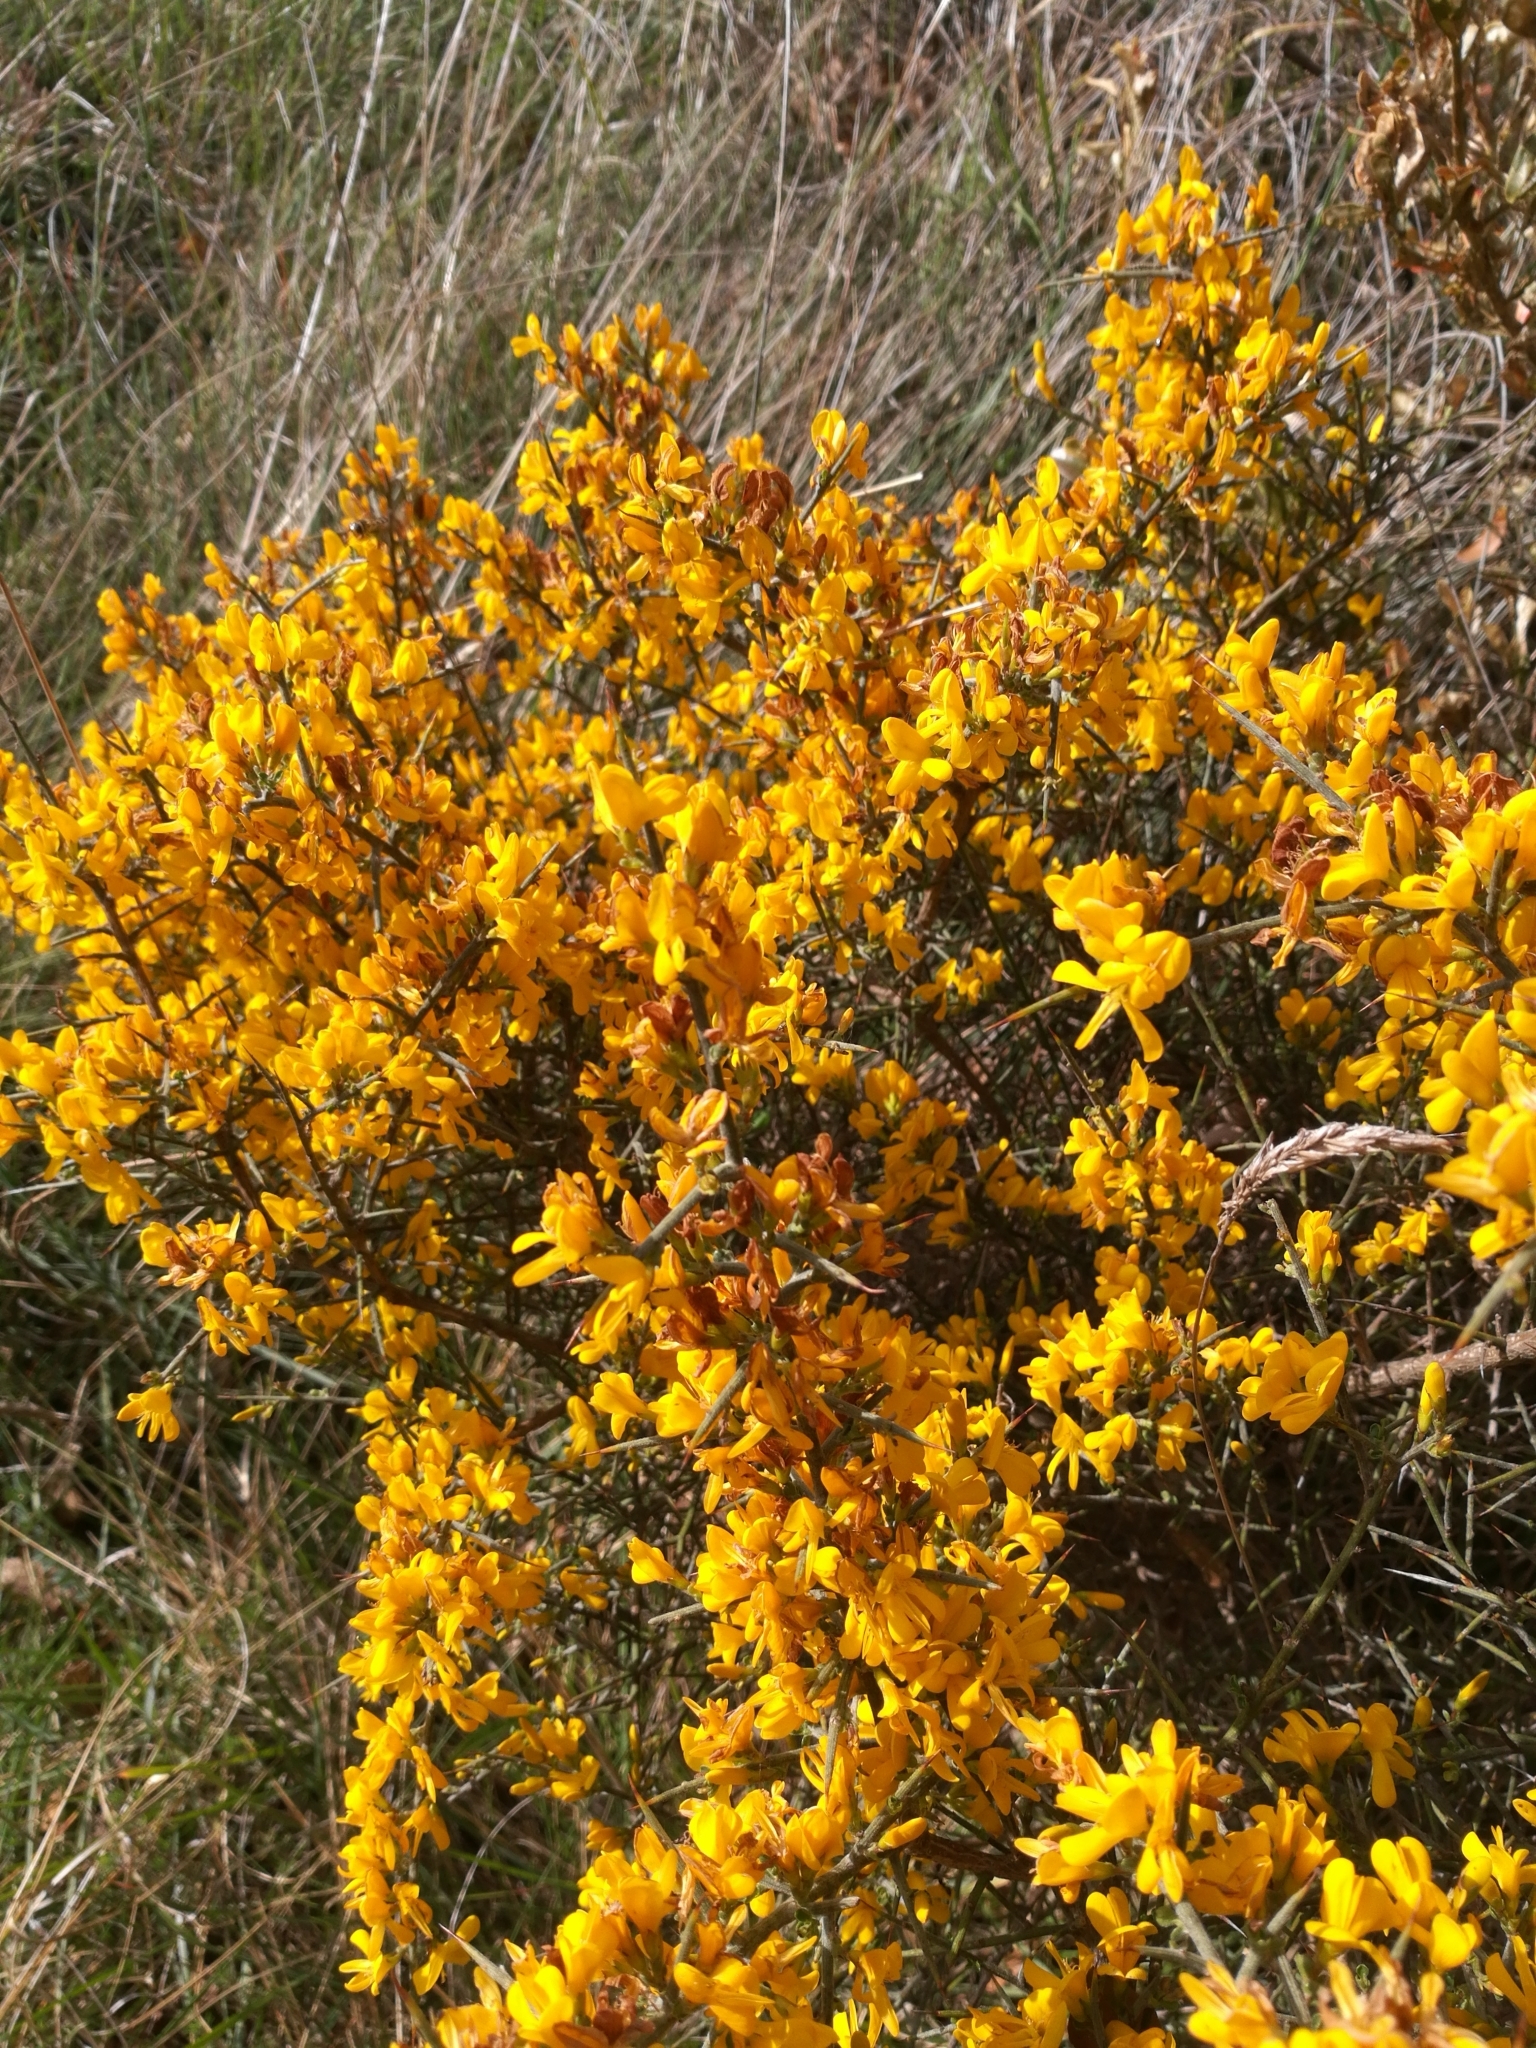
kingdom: Plantae
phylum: Tracheophyta
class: Magnoliopsida
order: Fabales
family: Fabaceae
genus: Genista
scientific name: Genista scorpius
